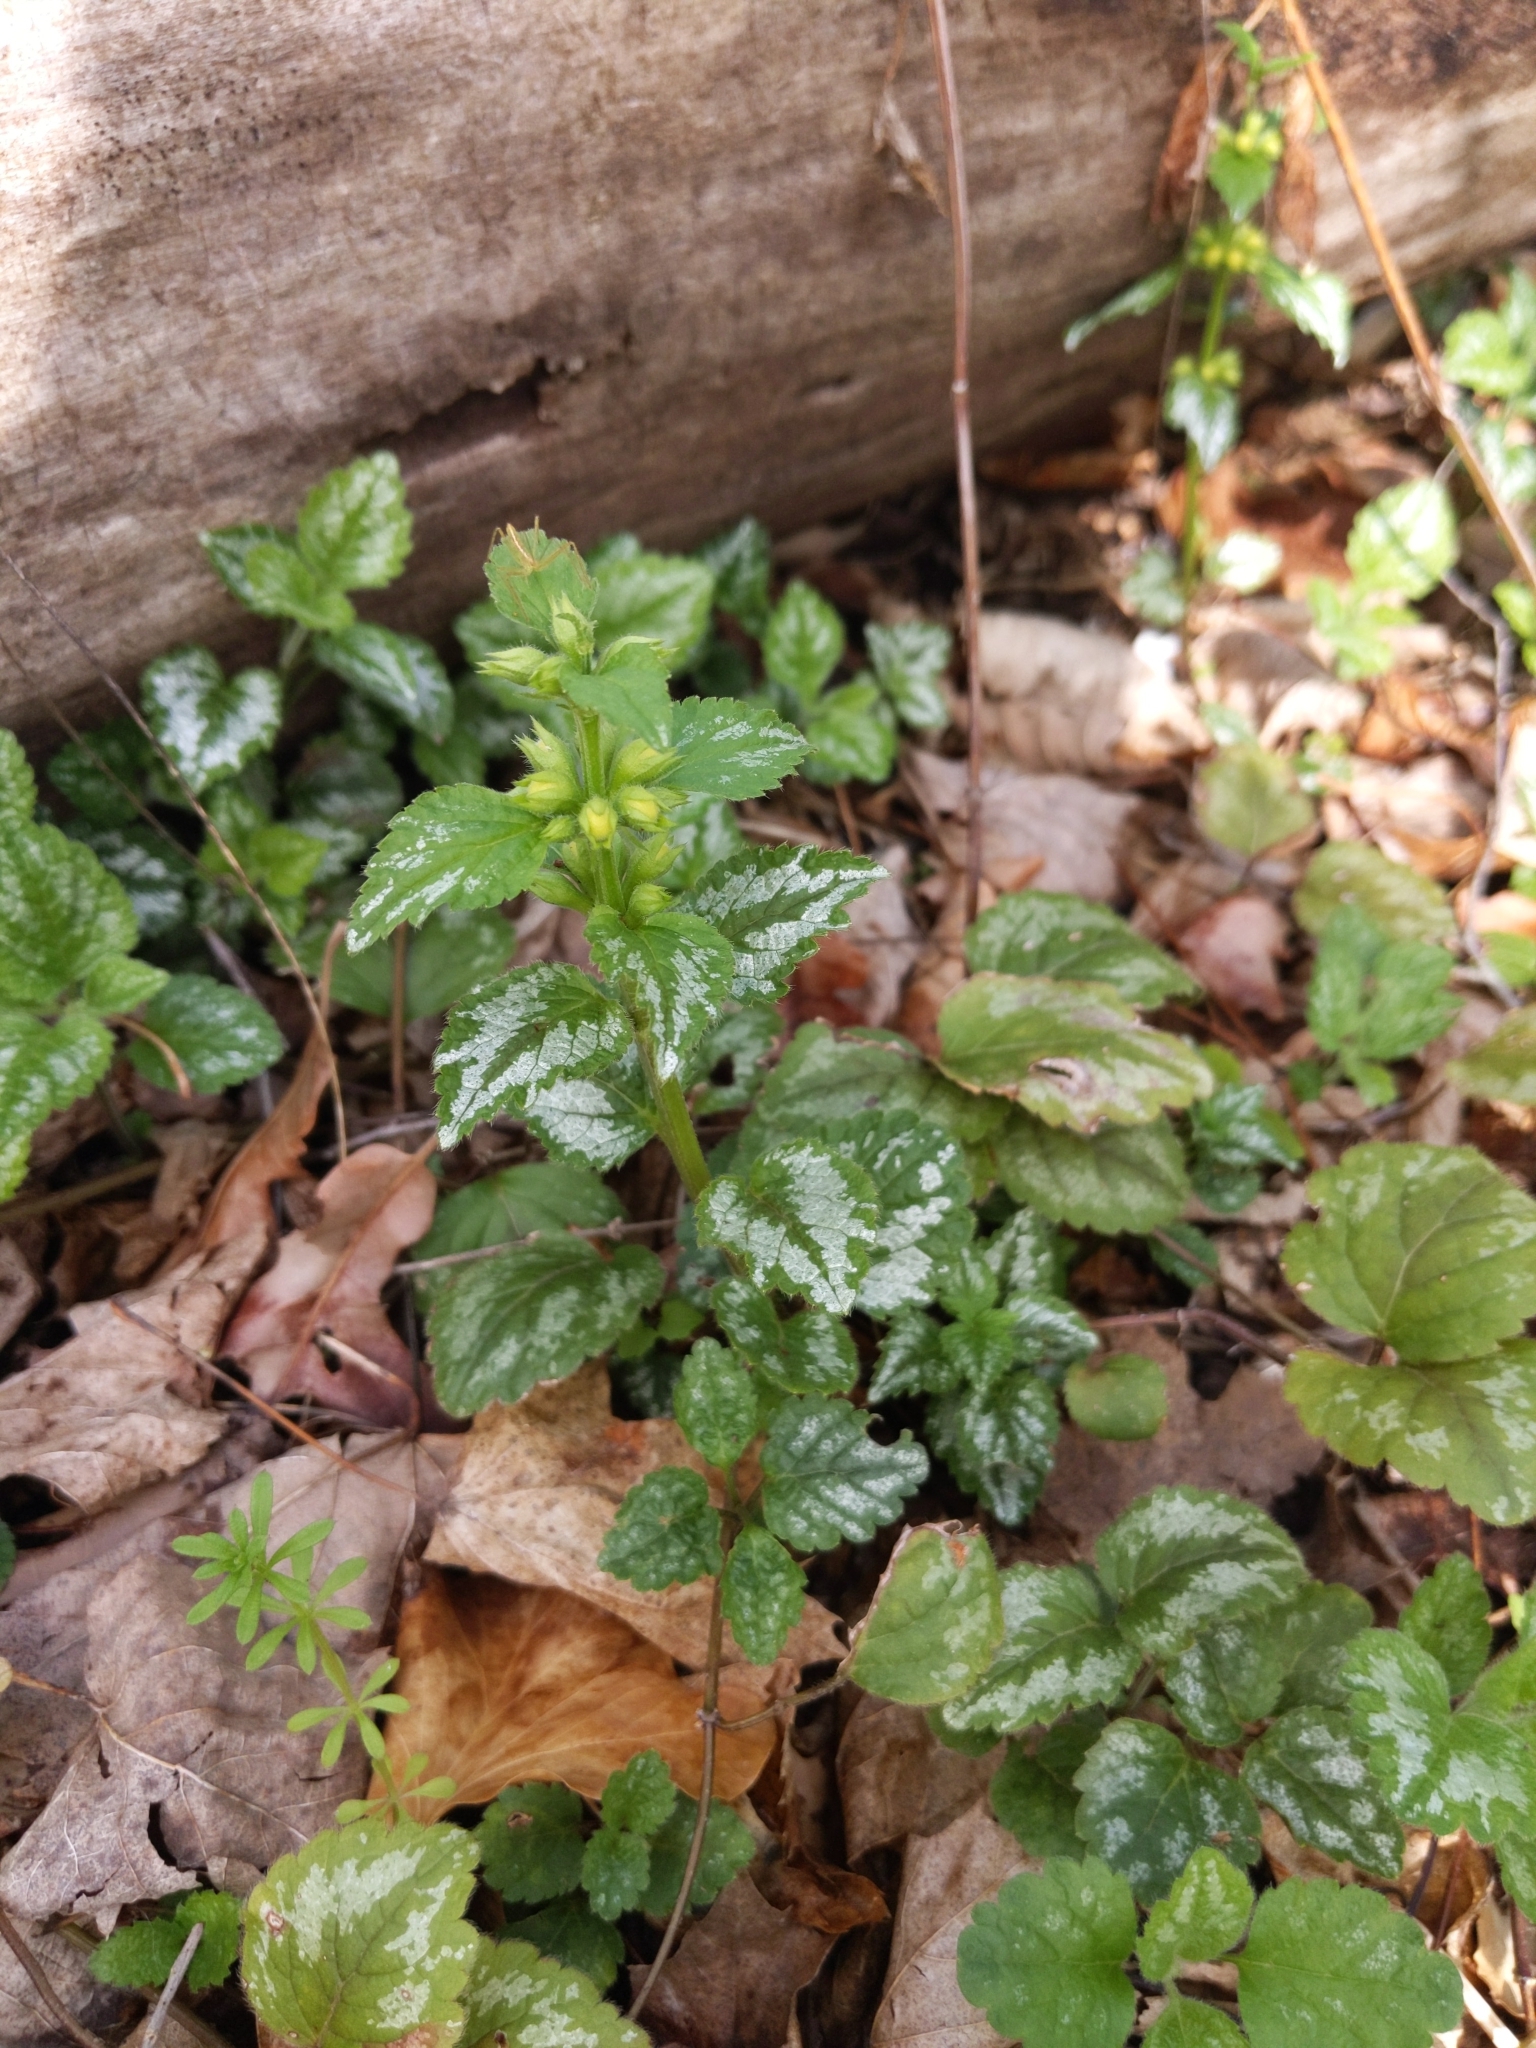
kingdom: Plantae
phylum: Tracheophyta
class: Magnoliopsida
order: Lamiales
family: Lamiaceae
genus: Lamium
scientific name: Lamium galeobdolon
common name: Yellow archangel
